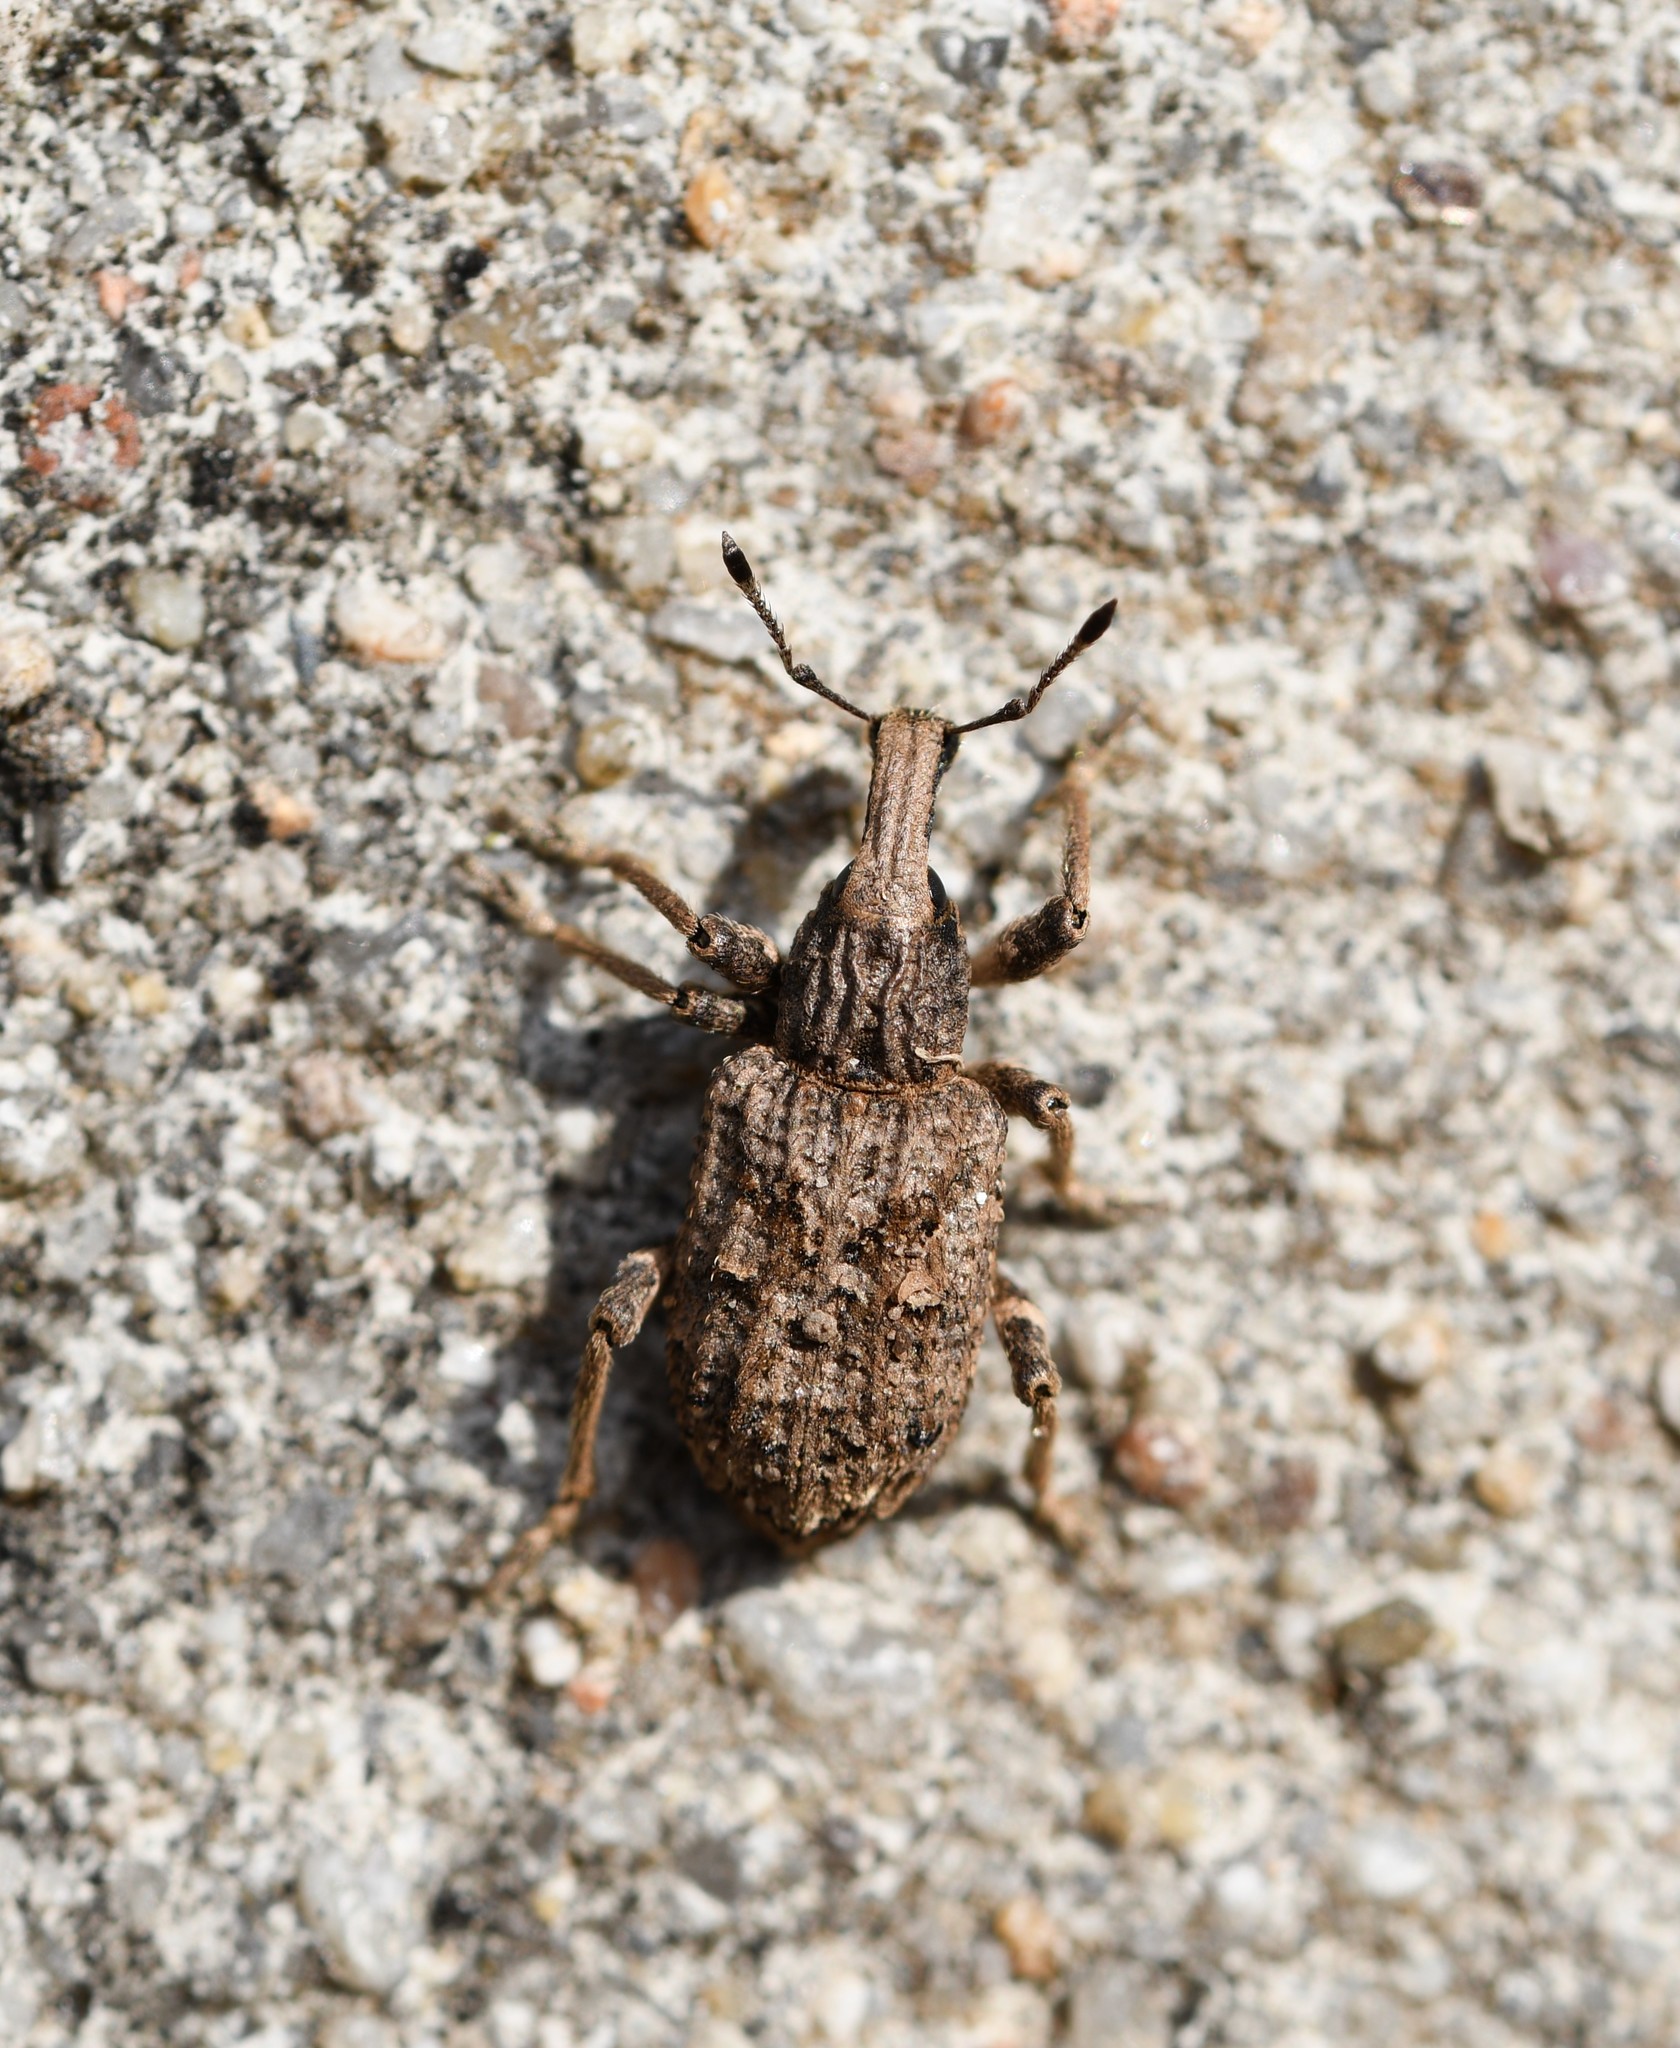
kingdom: Animalia
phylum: Arthropoda
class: Insecta
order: Coleoptera
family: Curculionidae
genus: Rhytideres
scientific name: Rhytideres plicatus
